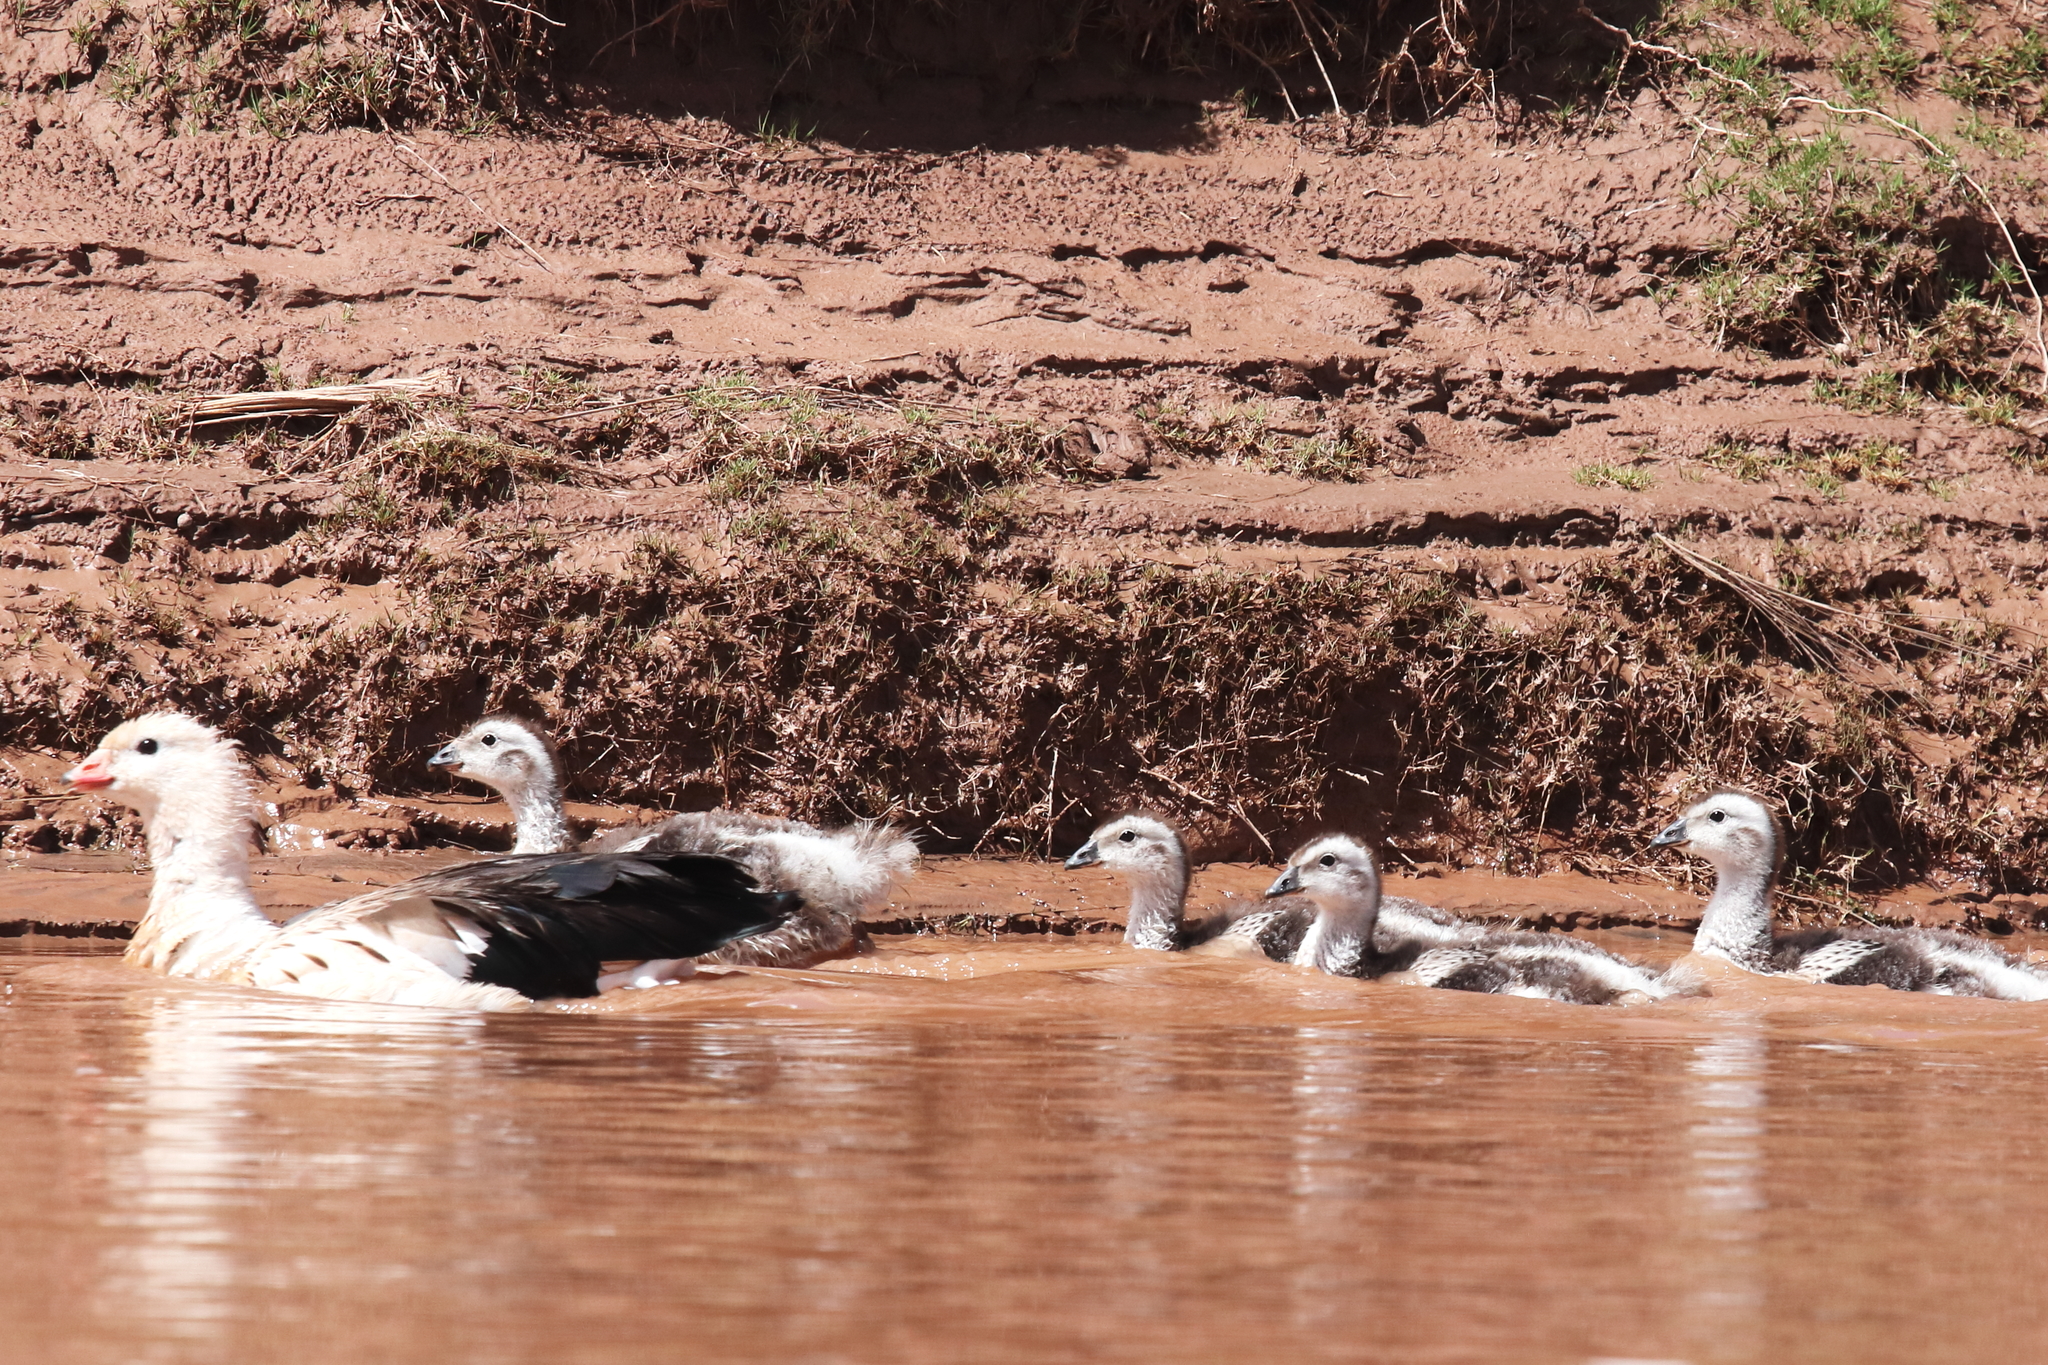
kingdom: Animalia
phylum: Chordata
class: Aves
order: Anseriformes
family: Anatidae
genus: Chloephaga
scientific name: Chloephaga melanoptera
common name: Andean goose
